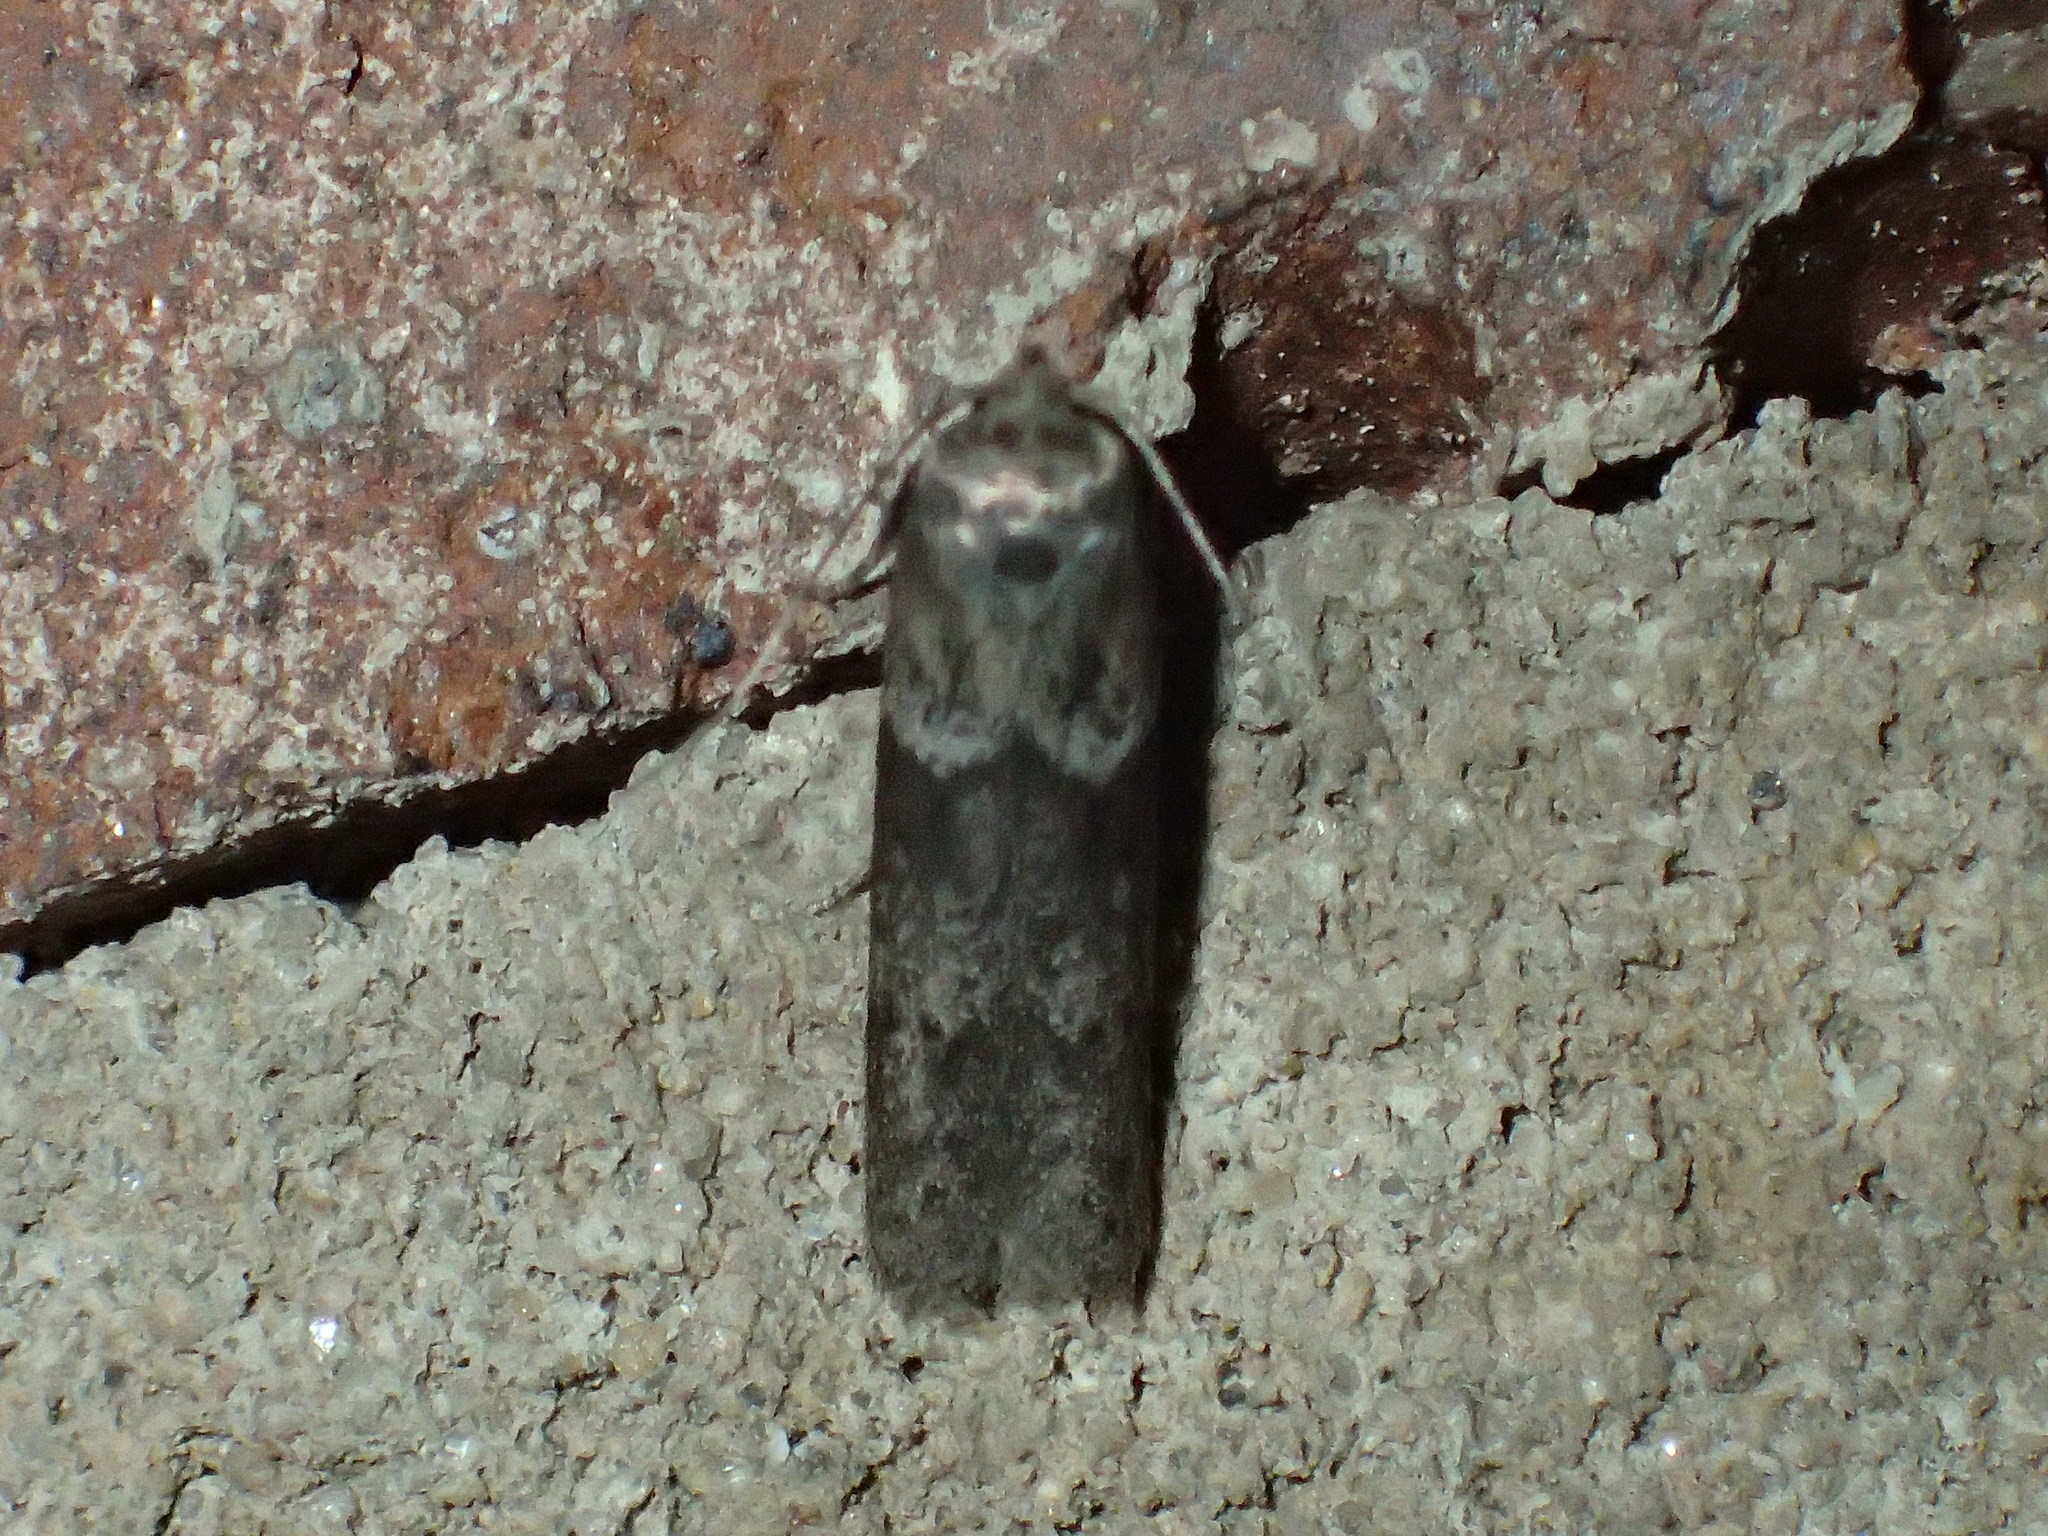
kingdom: Animalia
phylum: Arthropoda
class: Insecta
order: Lepidoptera
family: Blastobasidae
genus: Blastobasis
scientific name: Blastobasis glandulella
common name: Acorn moth
